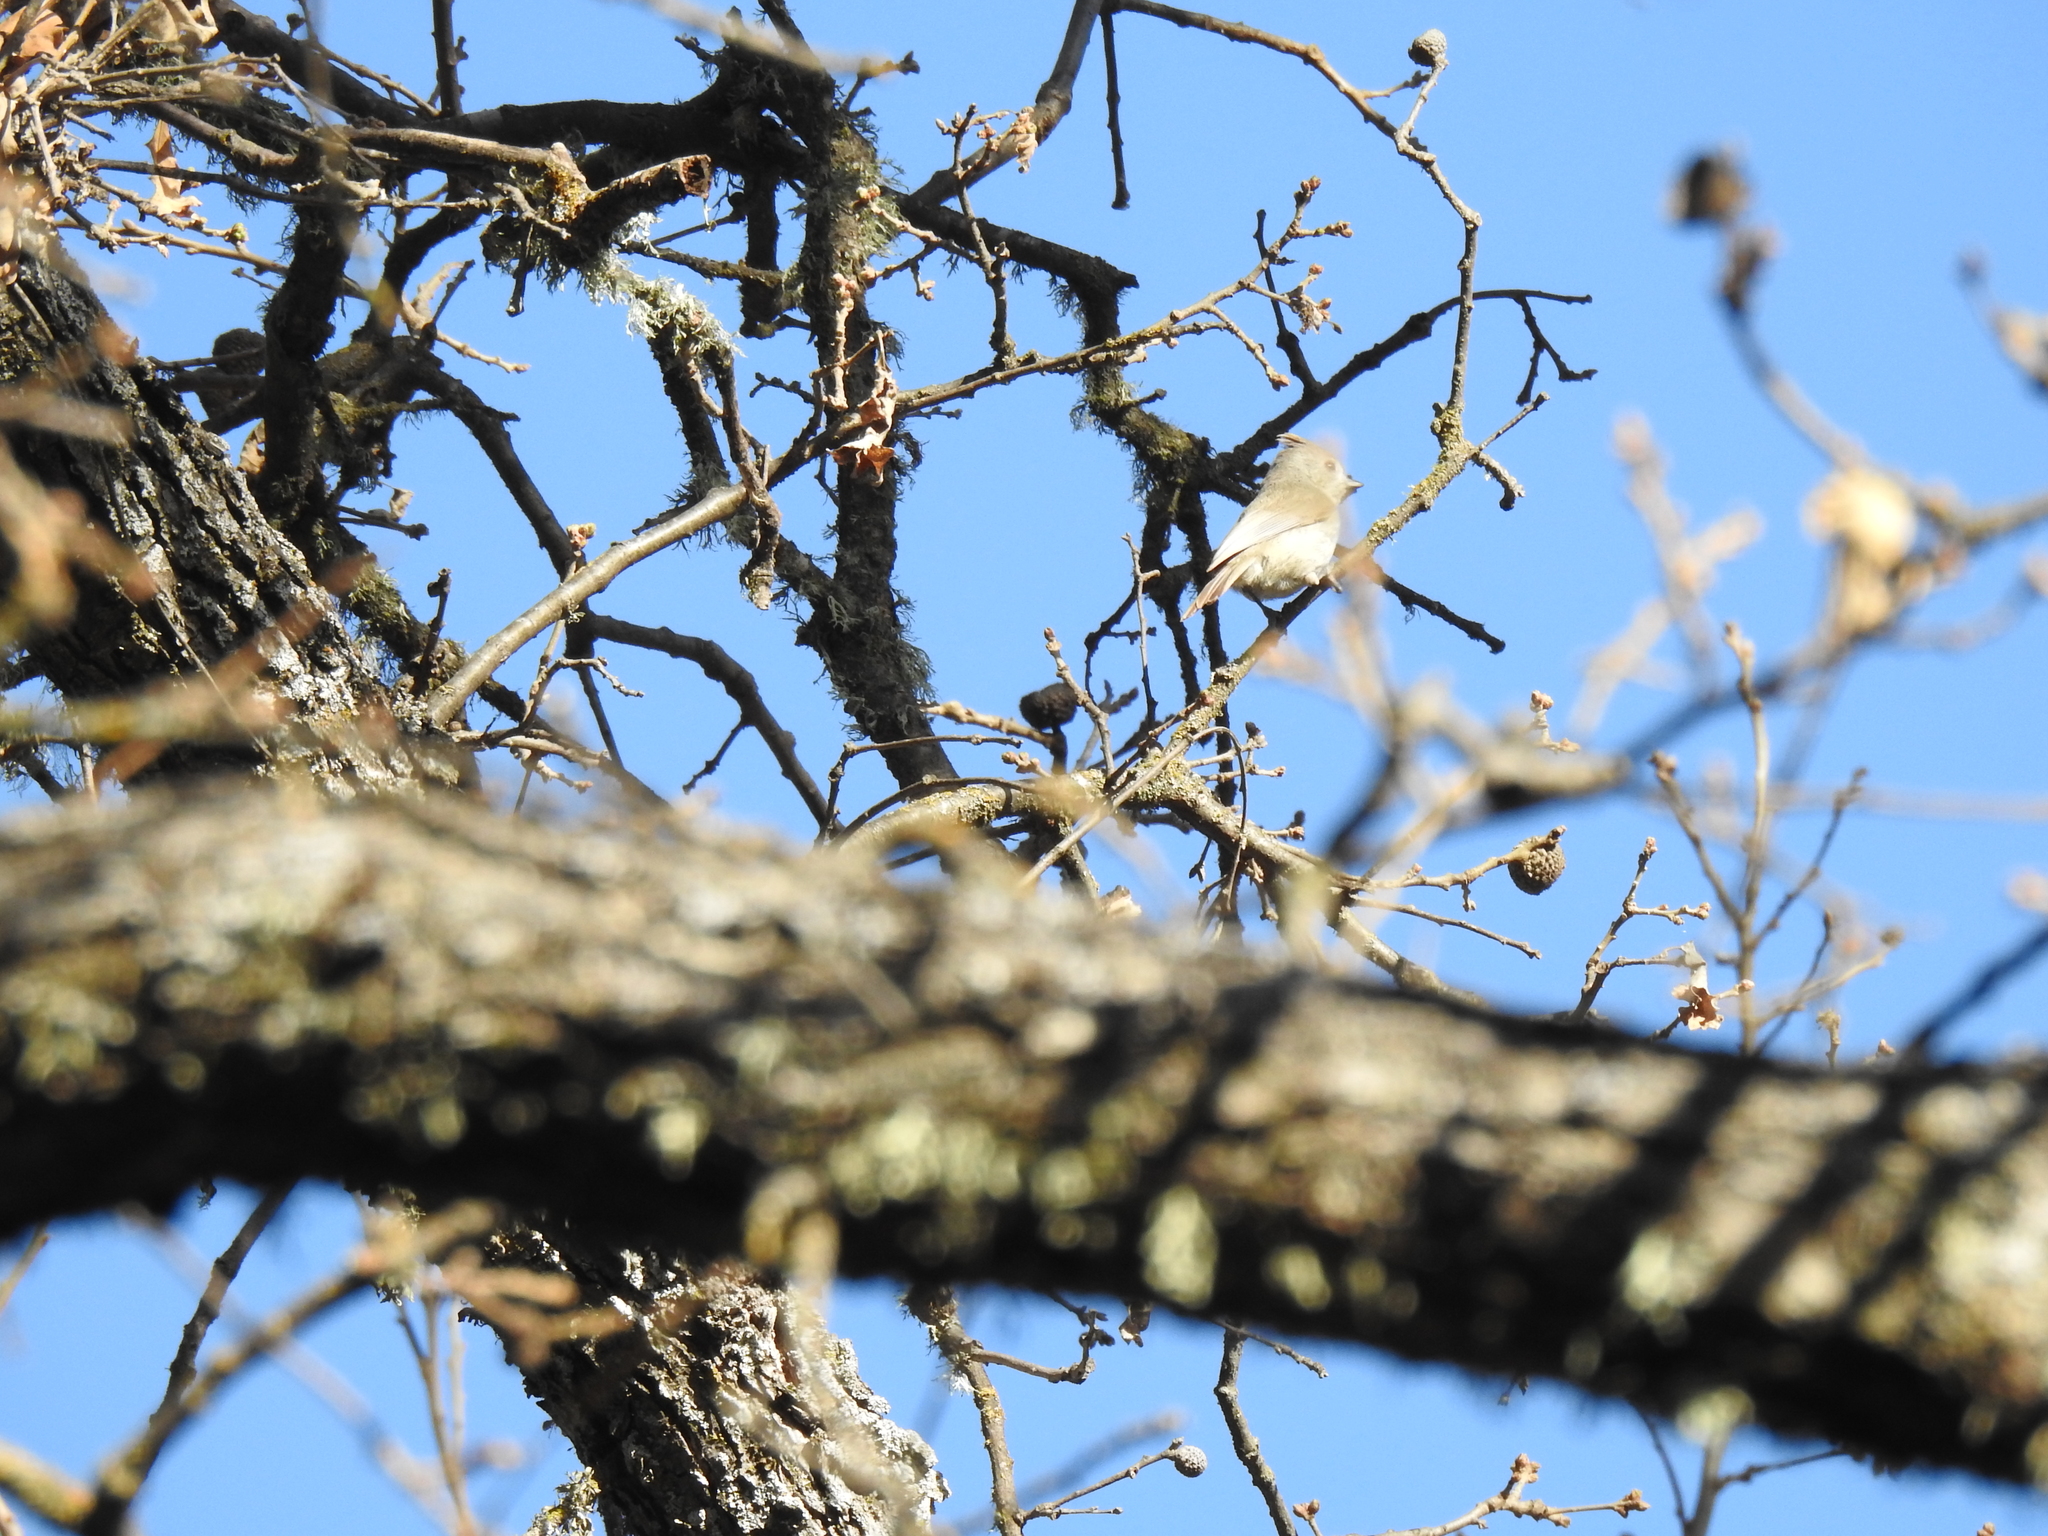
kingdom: Animalia
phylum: Chordata
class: Aves
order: Passeriformes
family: Paridae
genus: Baeolophus
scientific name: Baeolophus inornatus
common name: Oak titmouse
